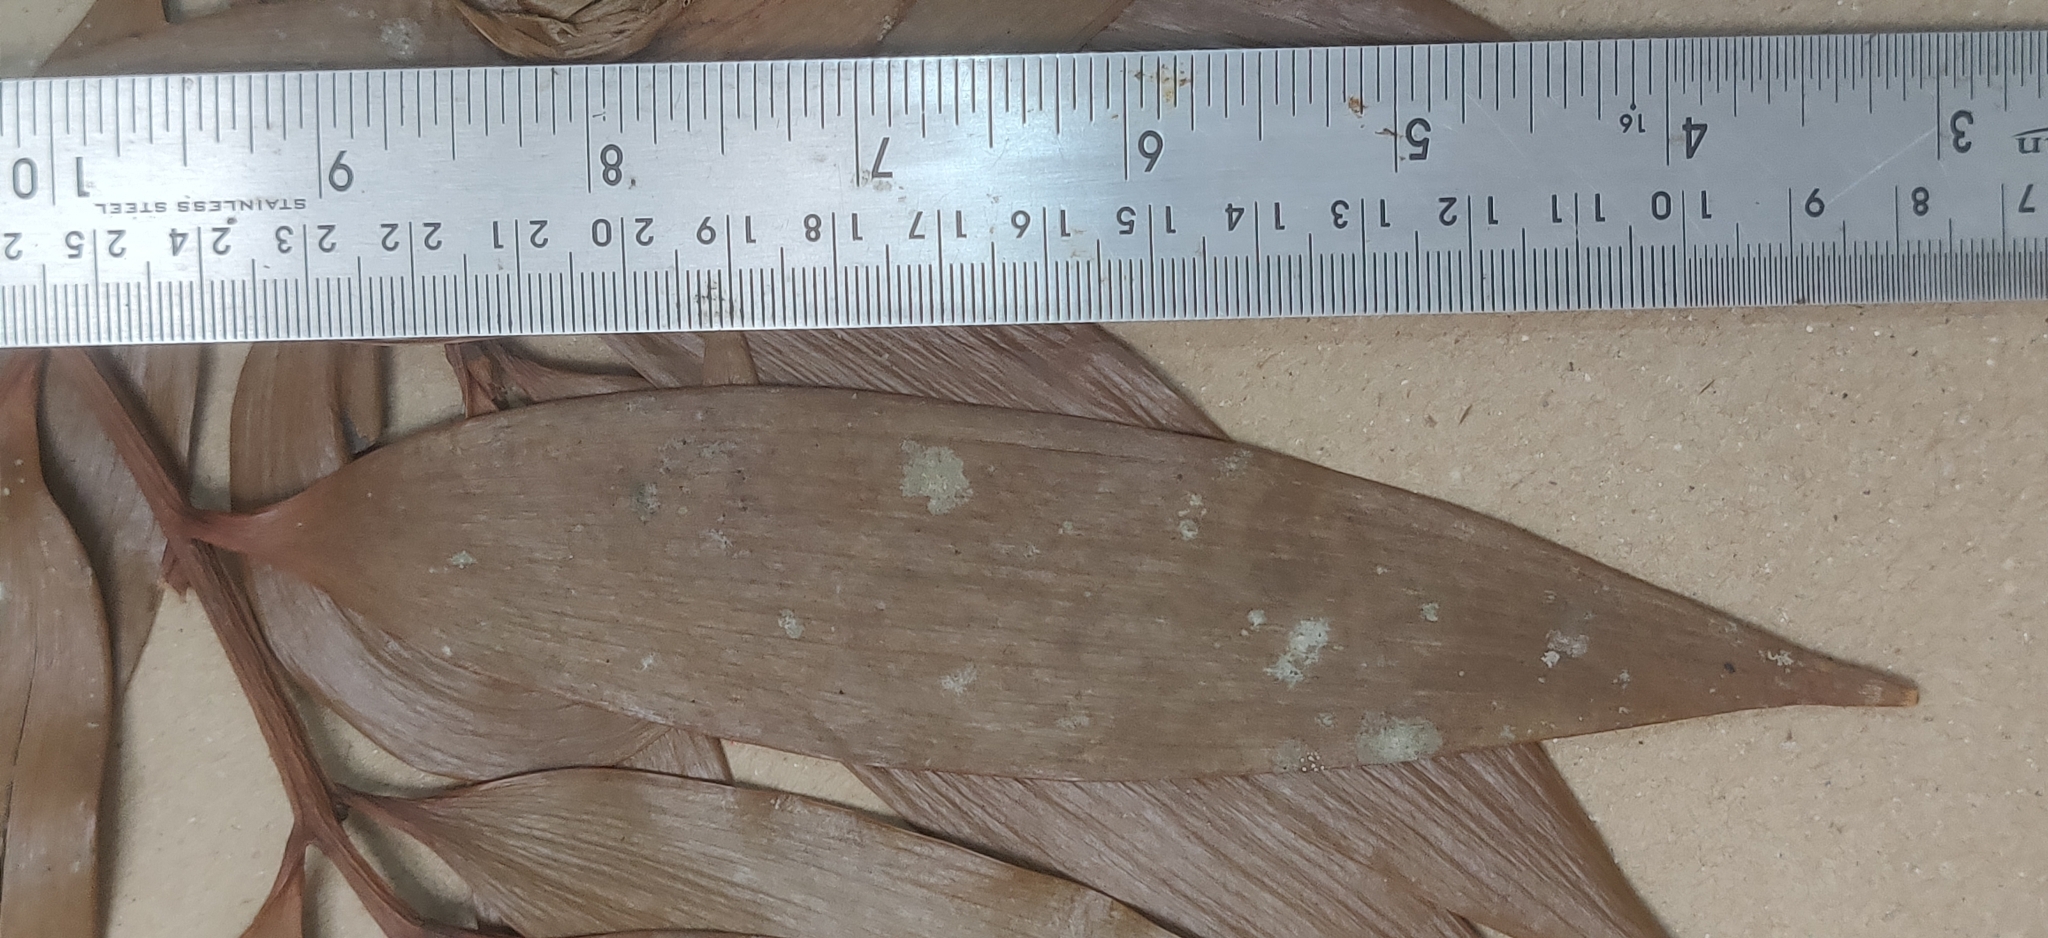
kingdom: Plantae
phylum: Tracheophyta
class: Pinopsida
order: Pinales
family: Podocarpaceae
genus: Nageia
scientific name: Nageia wallichiana
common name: Brown's-pine
